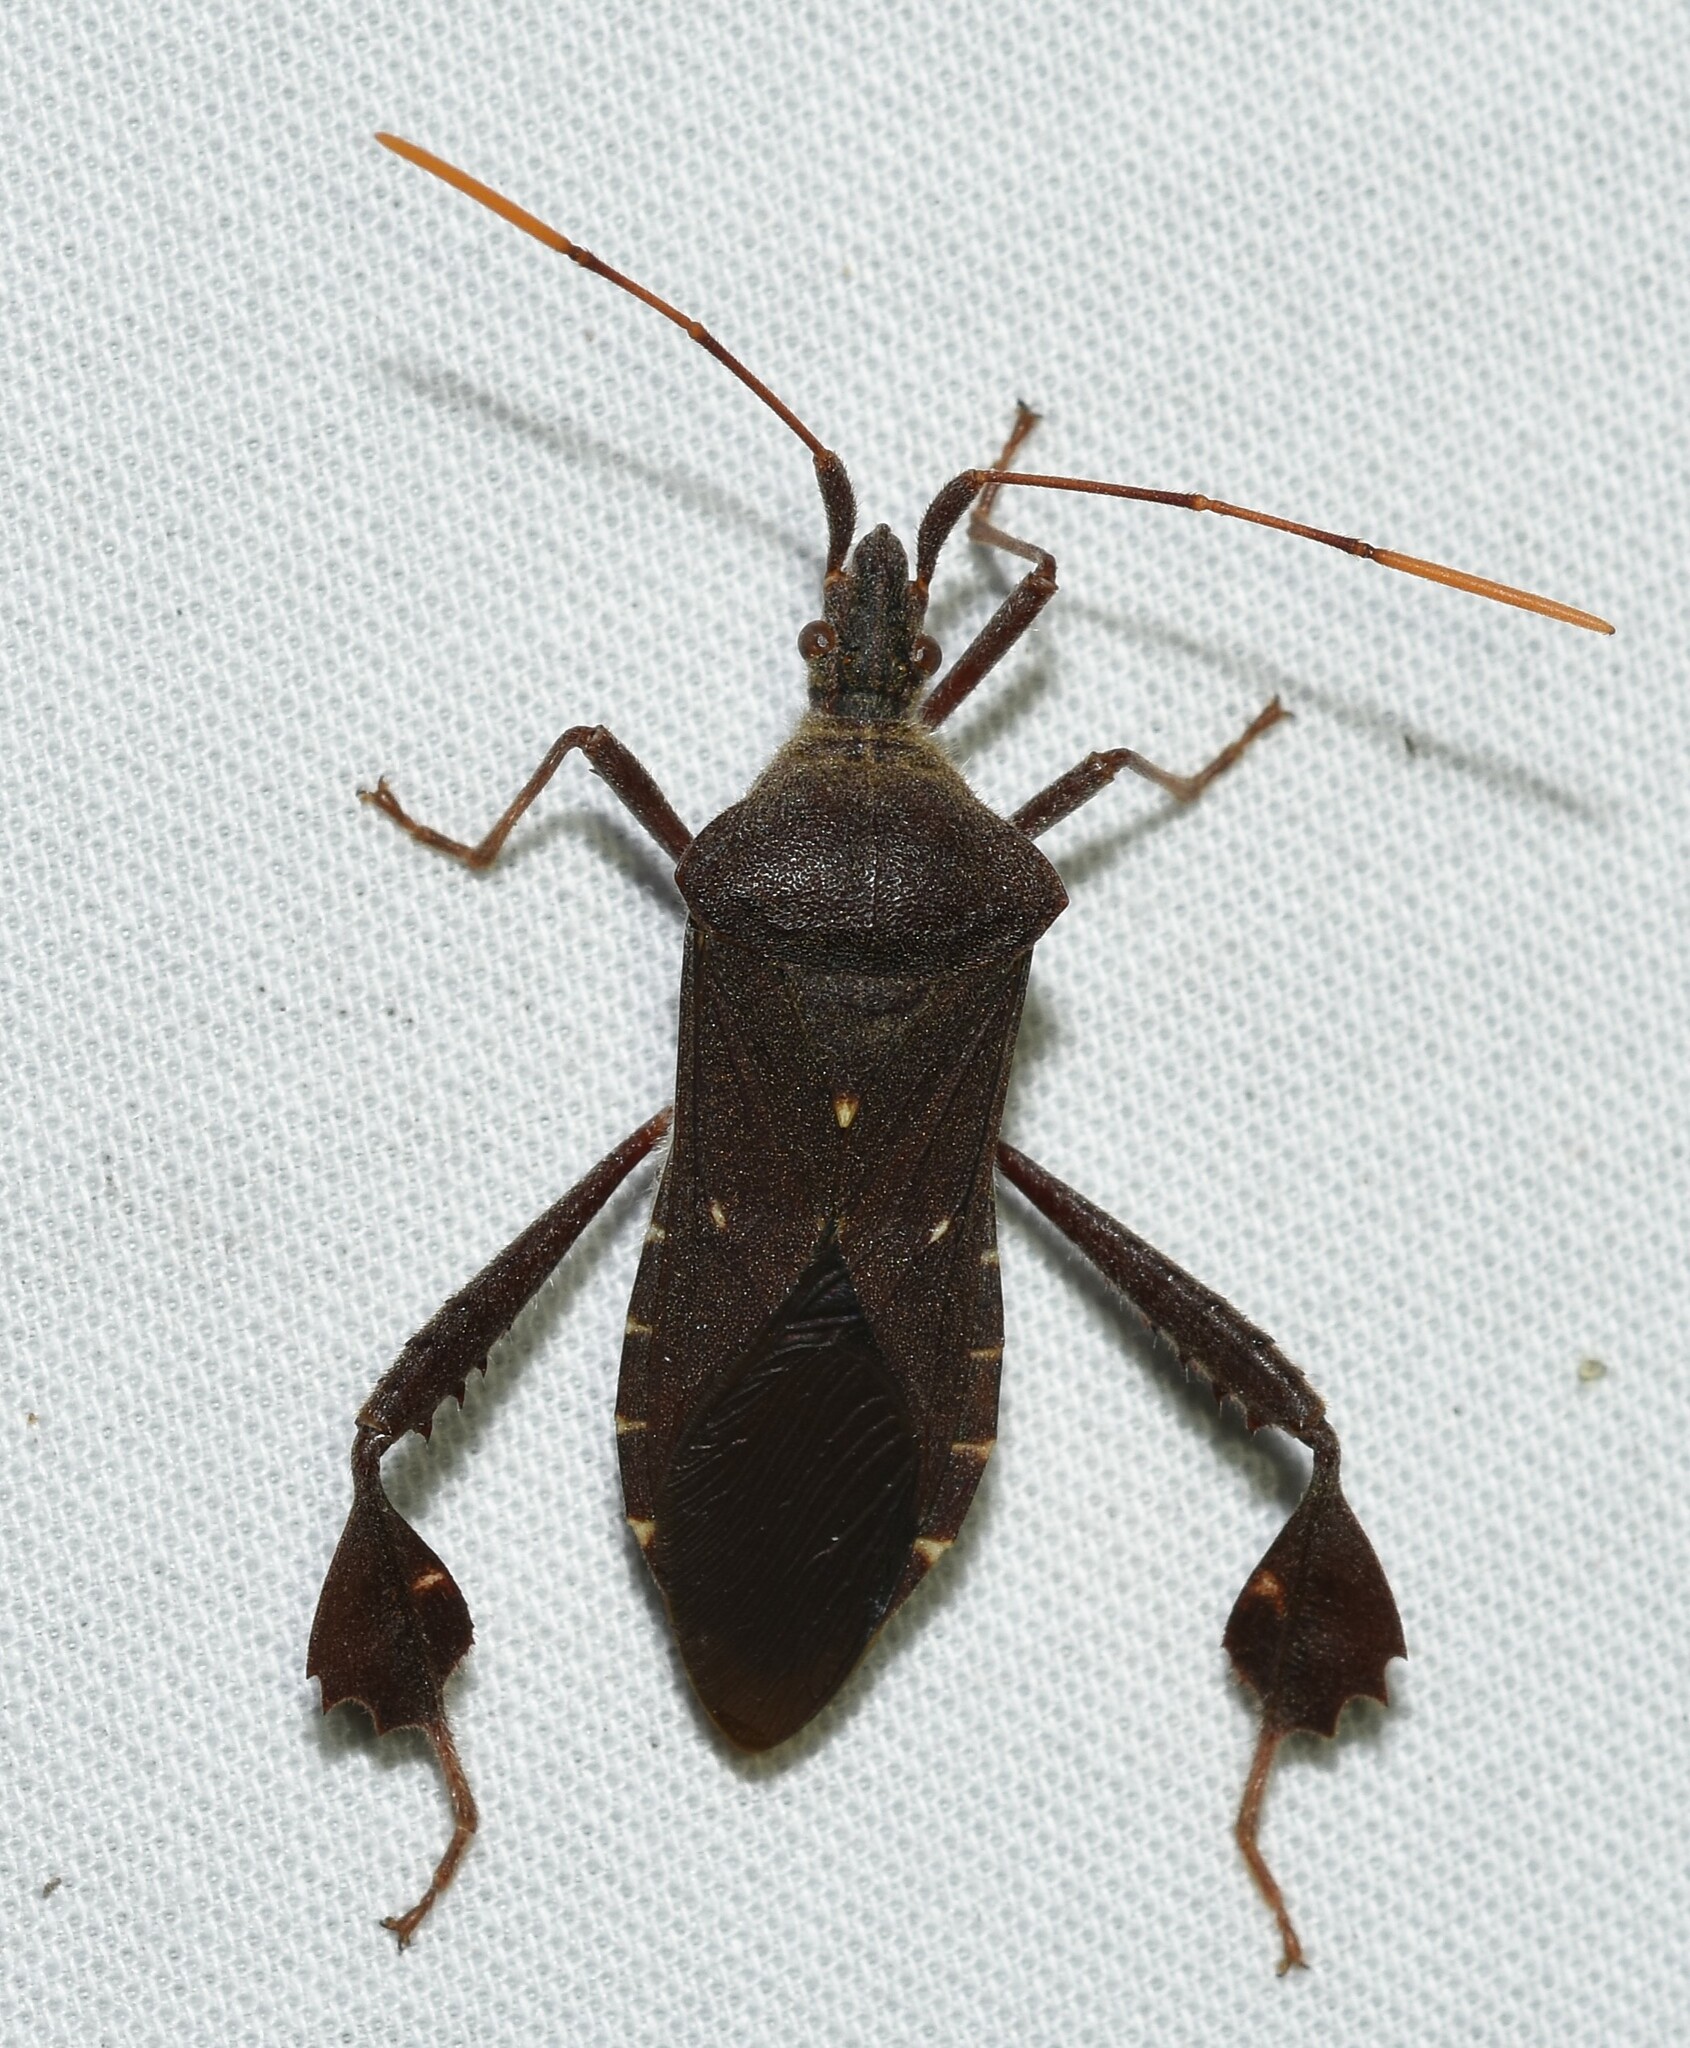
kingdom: Animalia
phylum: Arthropoda
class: Insecta
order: Hemiptera
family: Coreidae
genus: Leptoglossus
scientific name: Leptoglossus oppositus
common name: Northern leaf-footed bug
